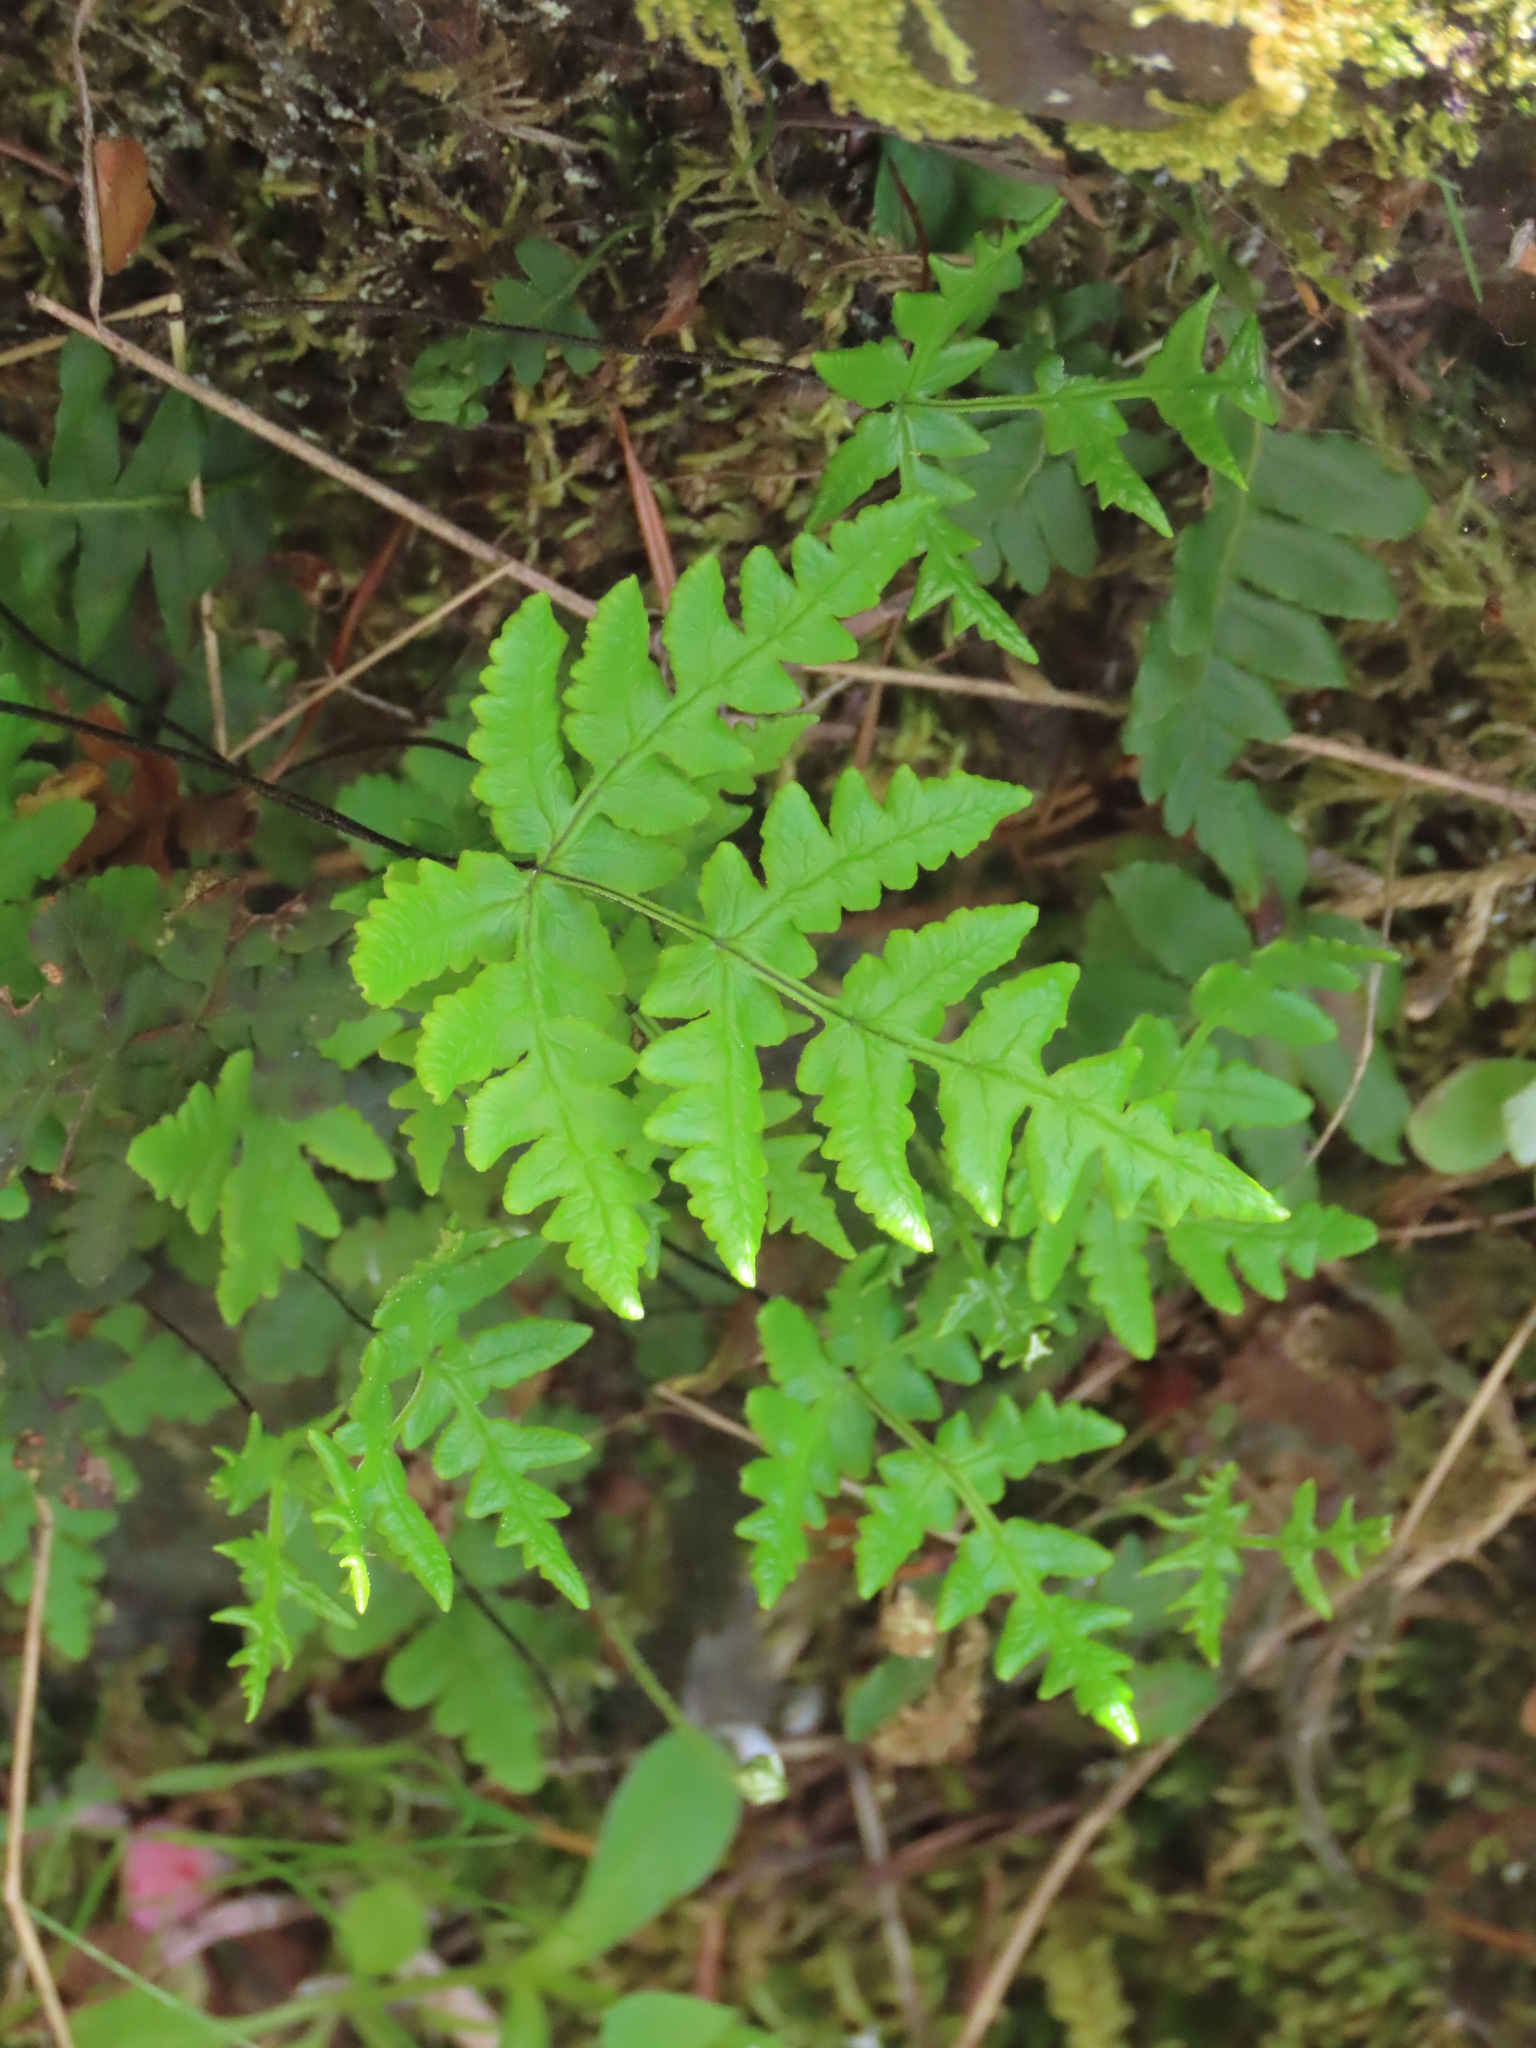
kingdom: Plantae
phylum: Tracheophyta
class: Polypodiopsida
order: Polypodiales
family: Pteridaceae
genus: Pentagramma
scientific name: Pentagramma triangularis
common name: Gold fern
